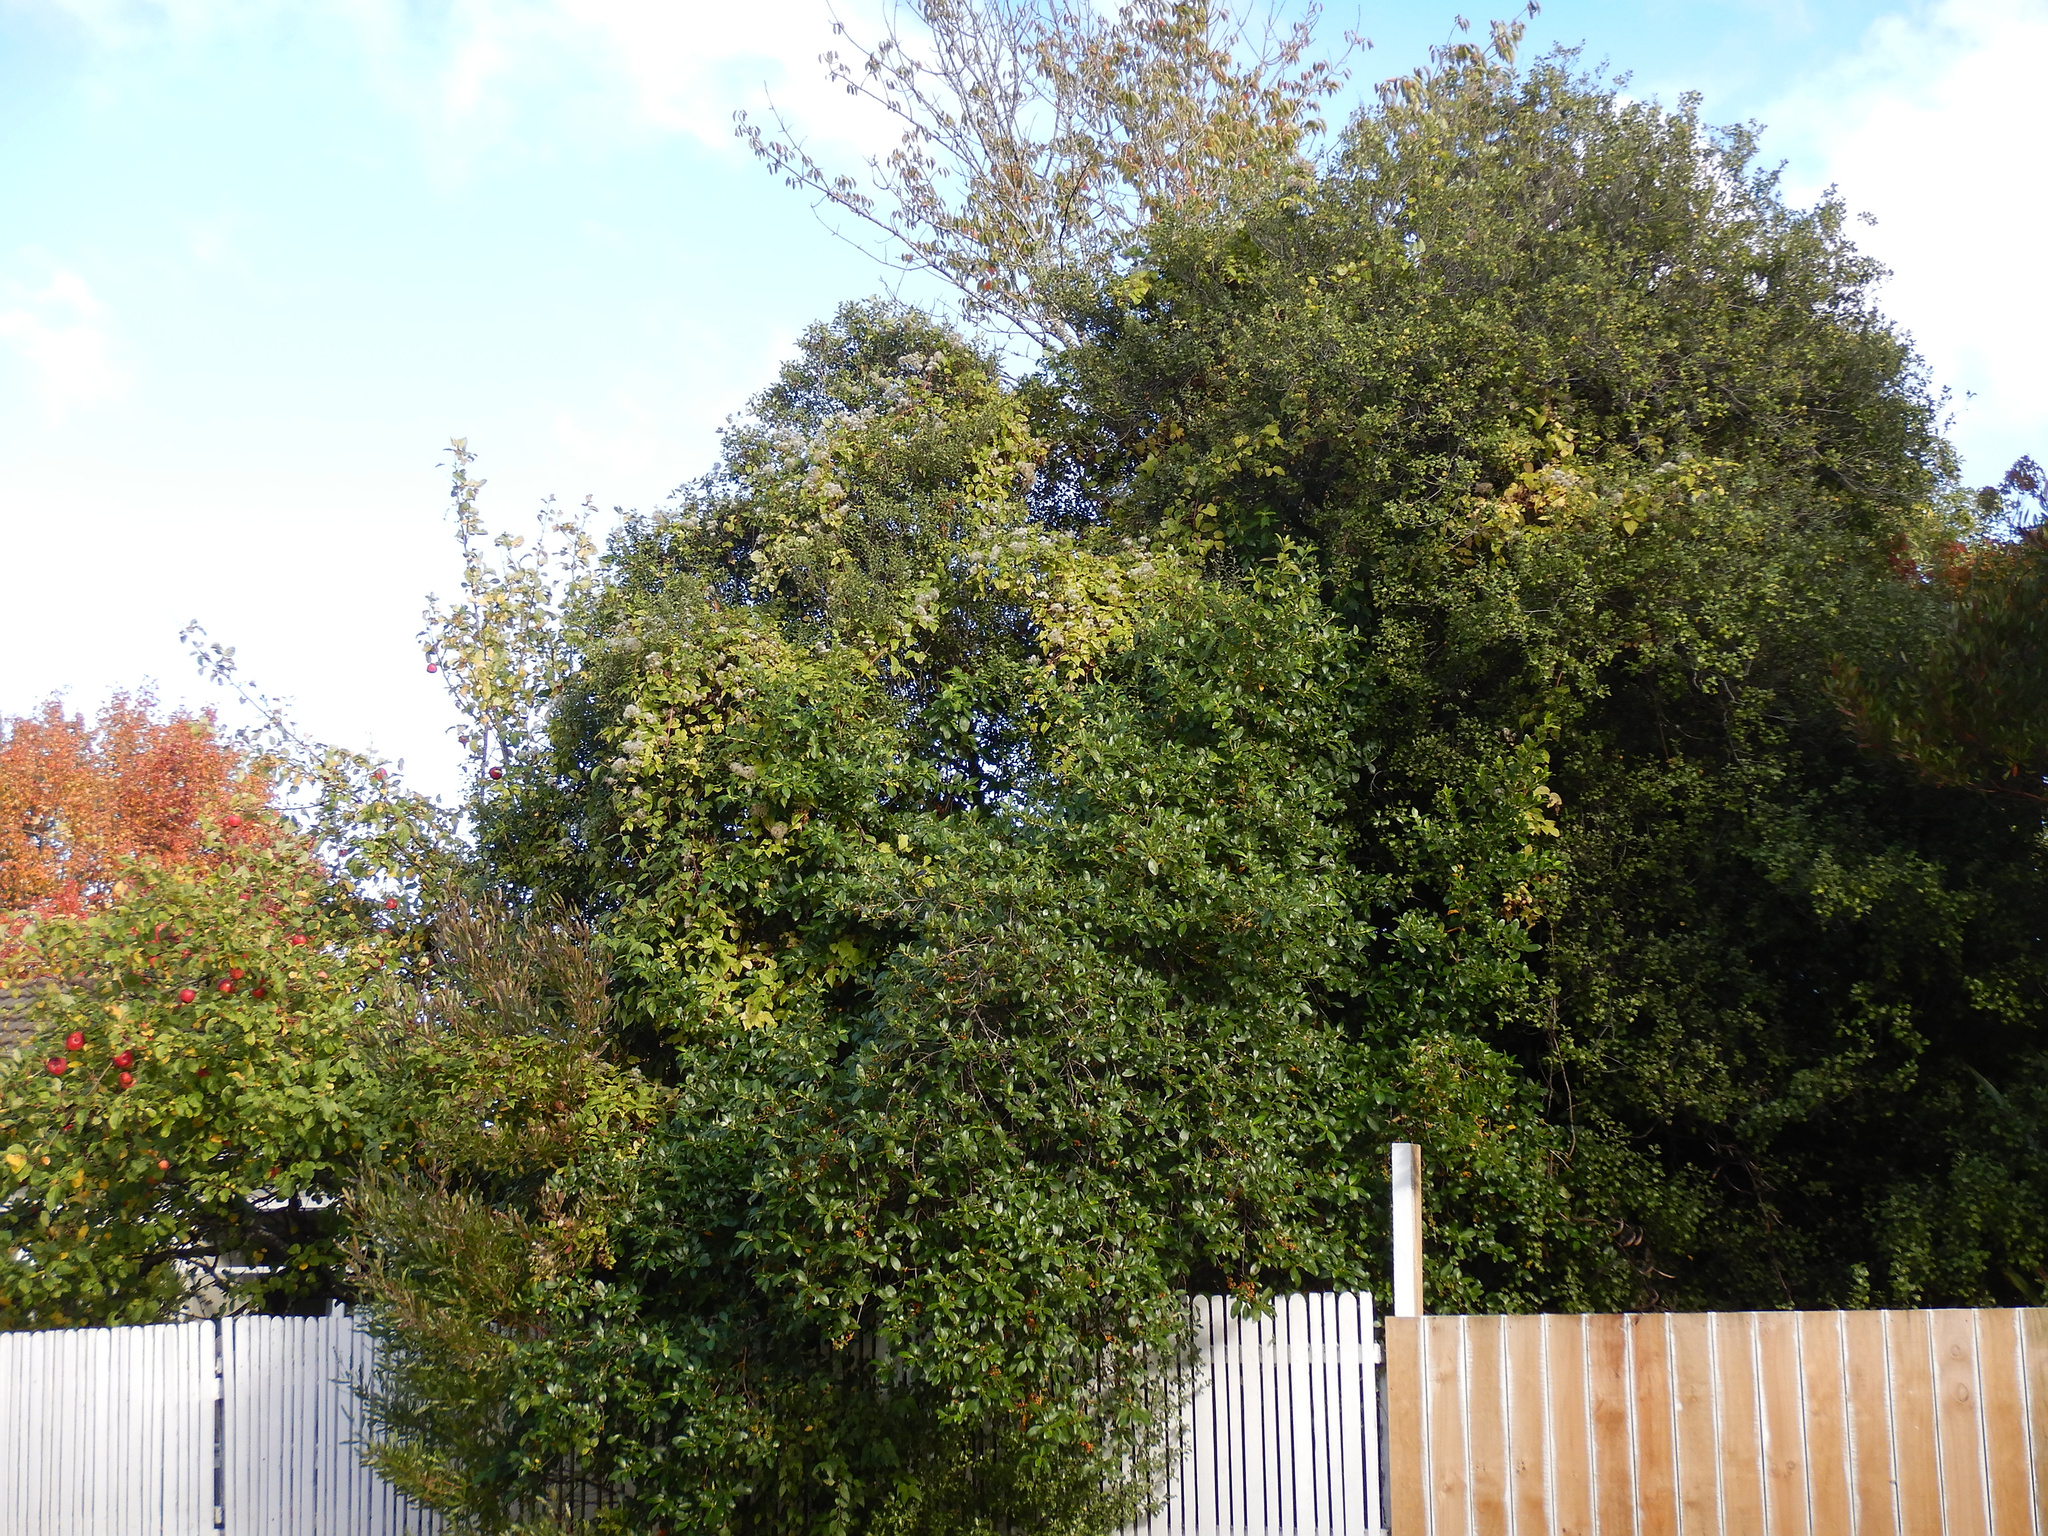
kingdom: Plantae
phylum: Tracheophyta
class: Magnoliopsida
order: Ranunculales
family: Ranunculaceae
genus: Clematis
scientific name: Clematis vitalba
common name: Evergreen clematis
